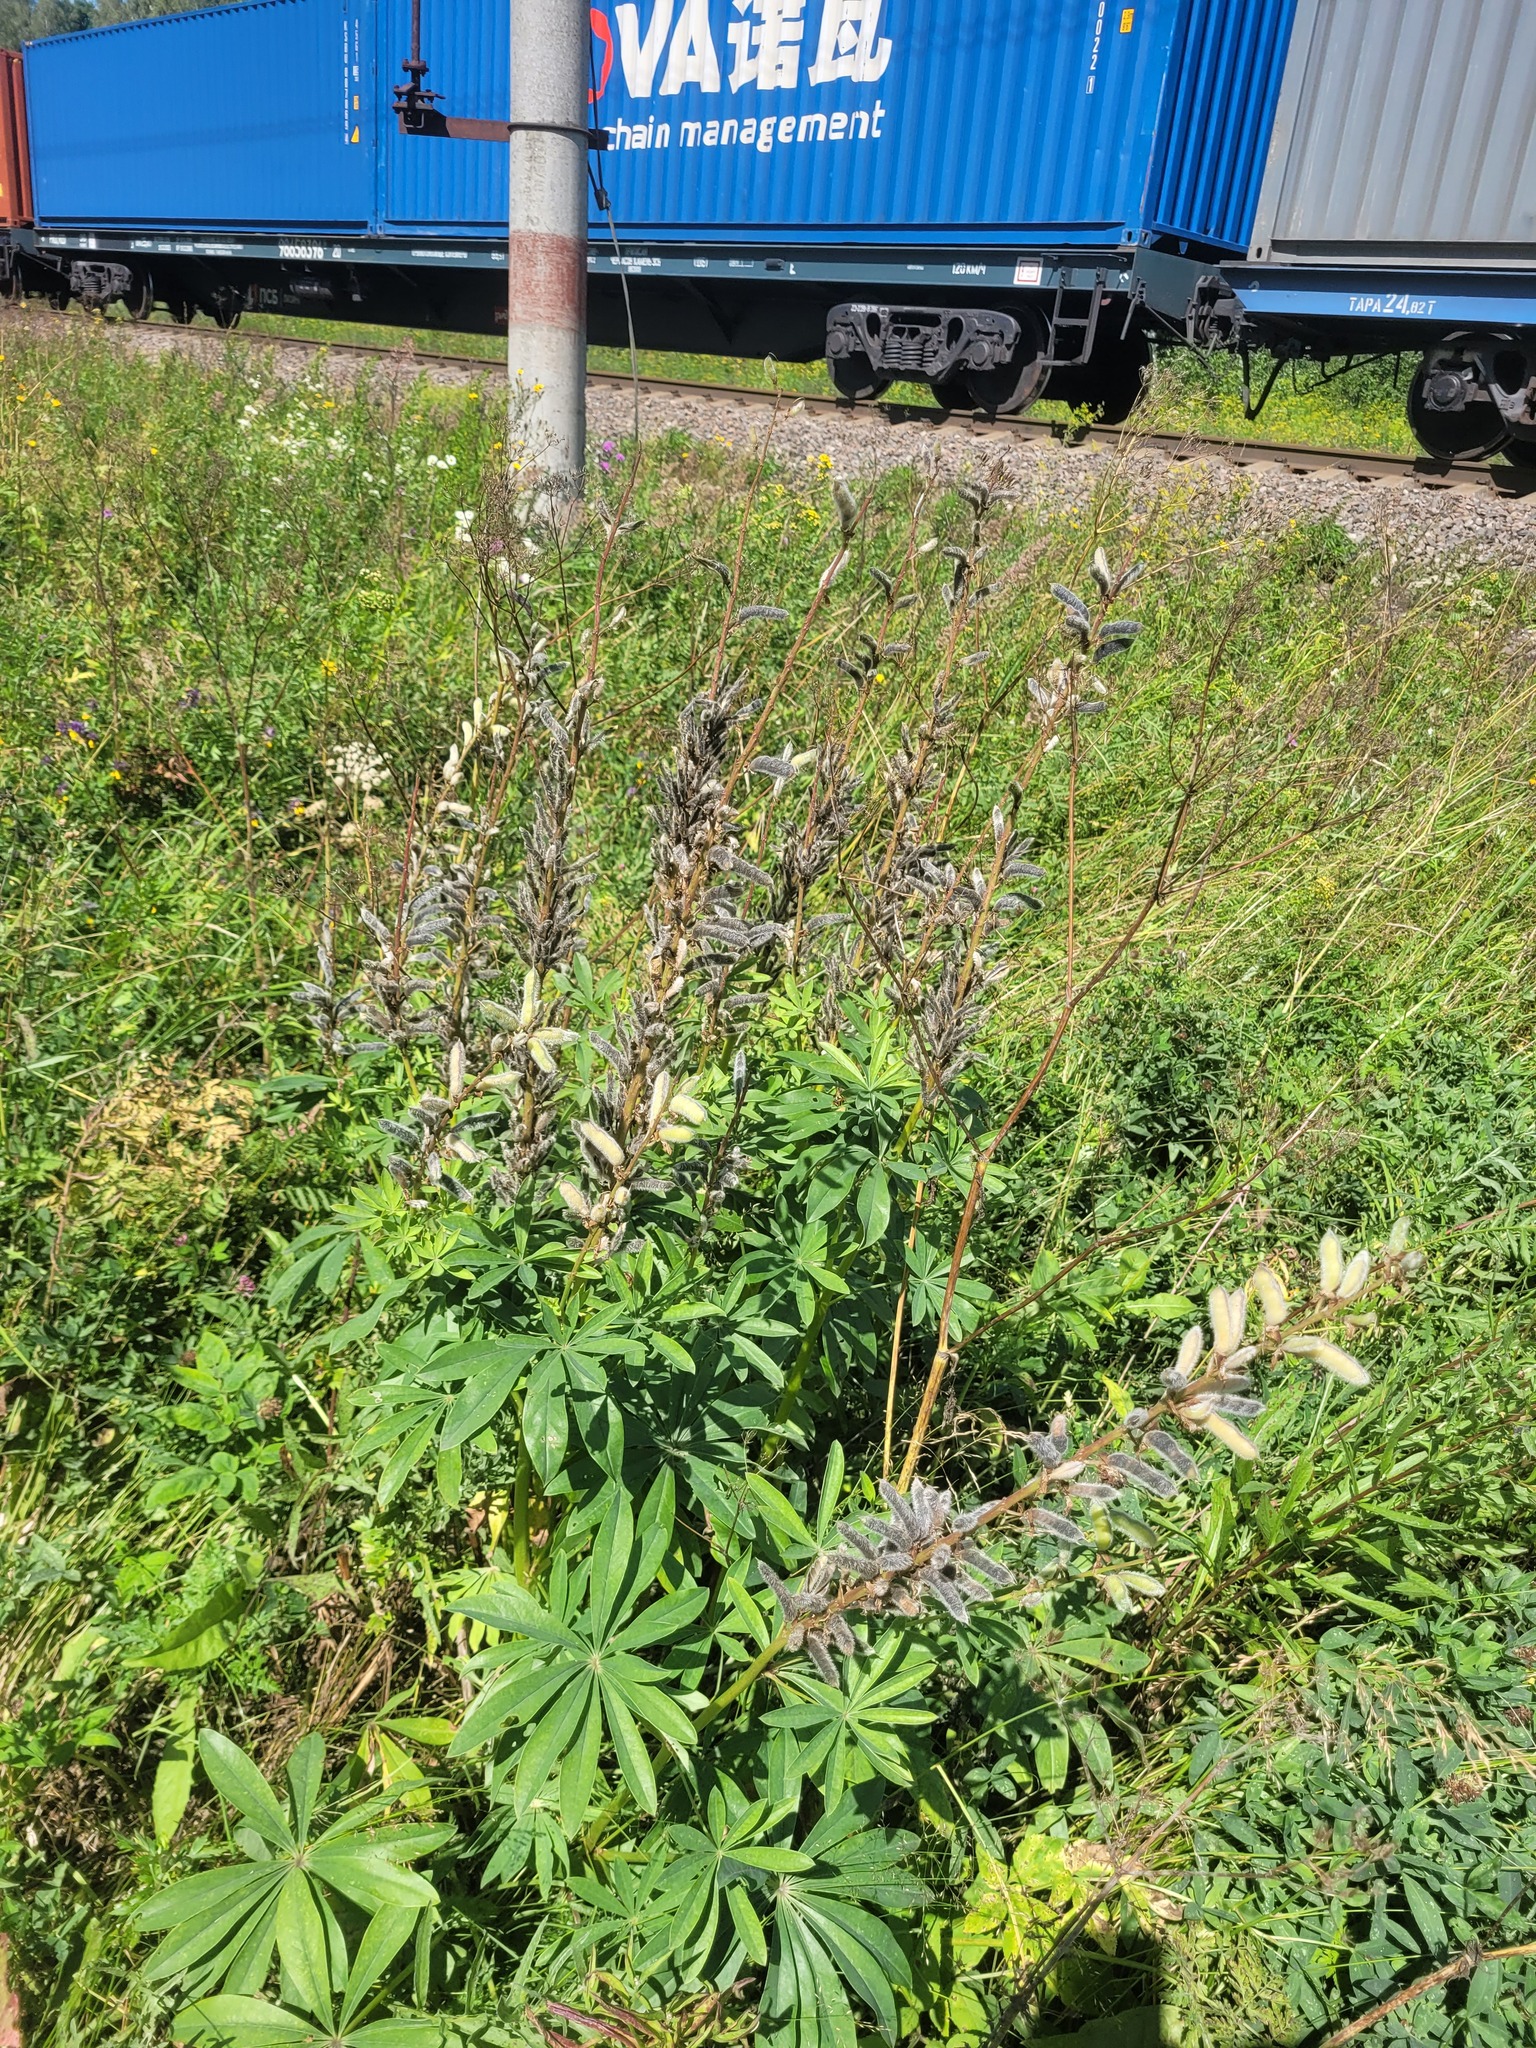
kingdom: Plantae
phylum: Tracheophyta
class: Magnoliopsida
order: Fabales
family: Fabaceae
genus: Lupinus
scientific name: Lupinus polyphyllus
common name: Garden lupin
